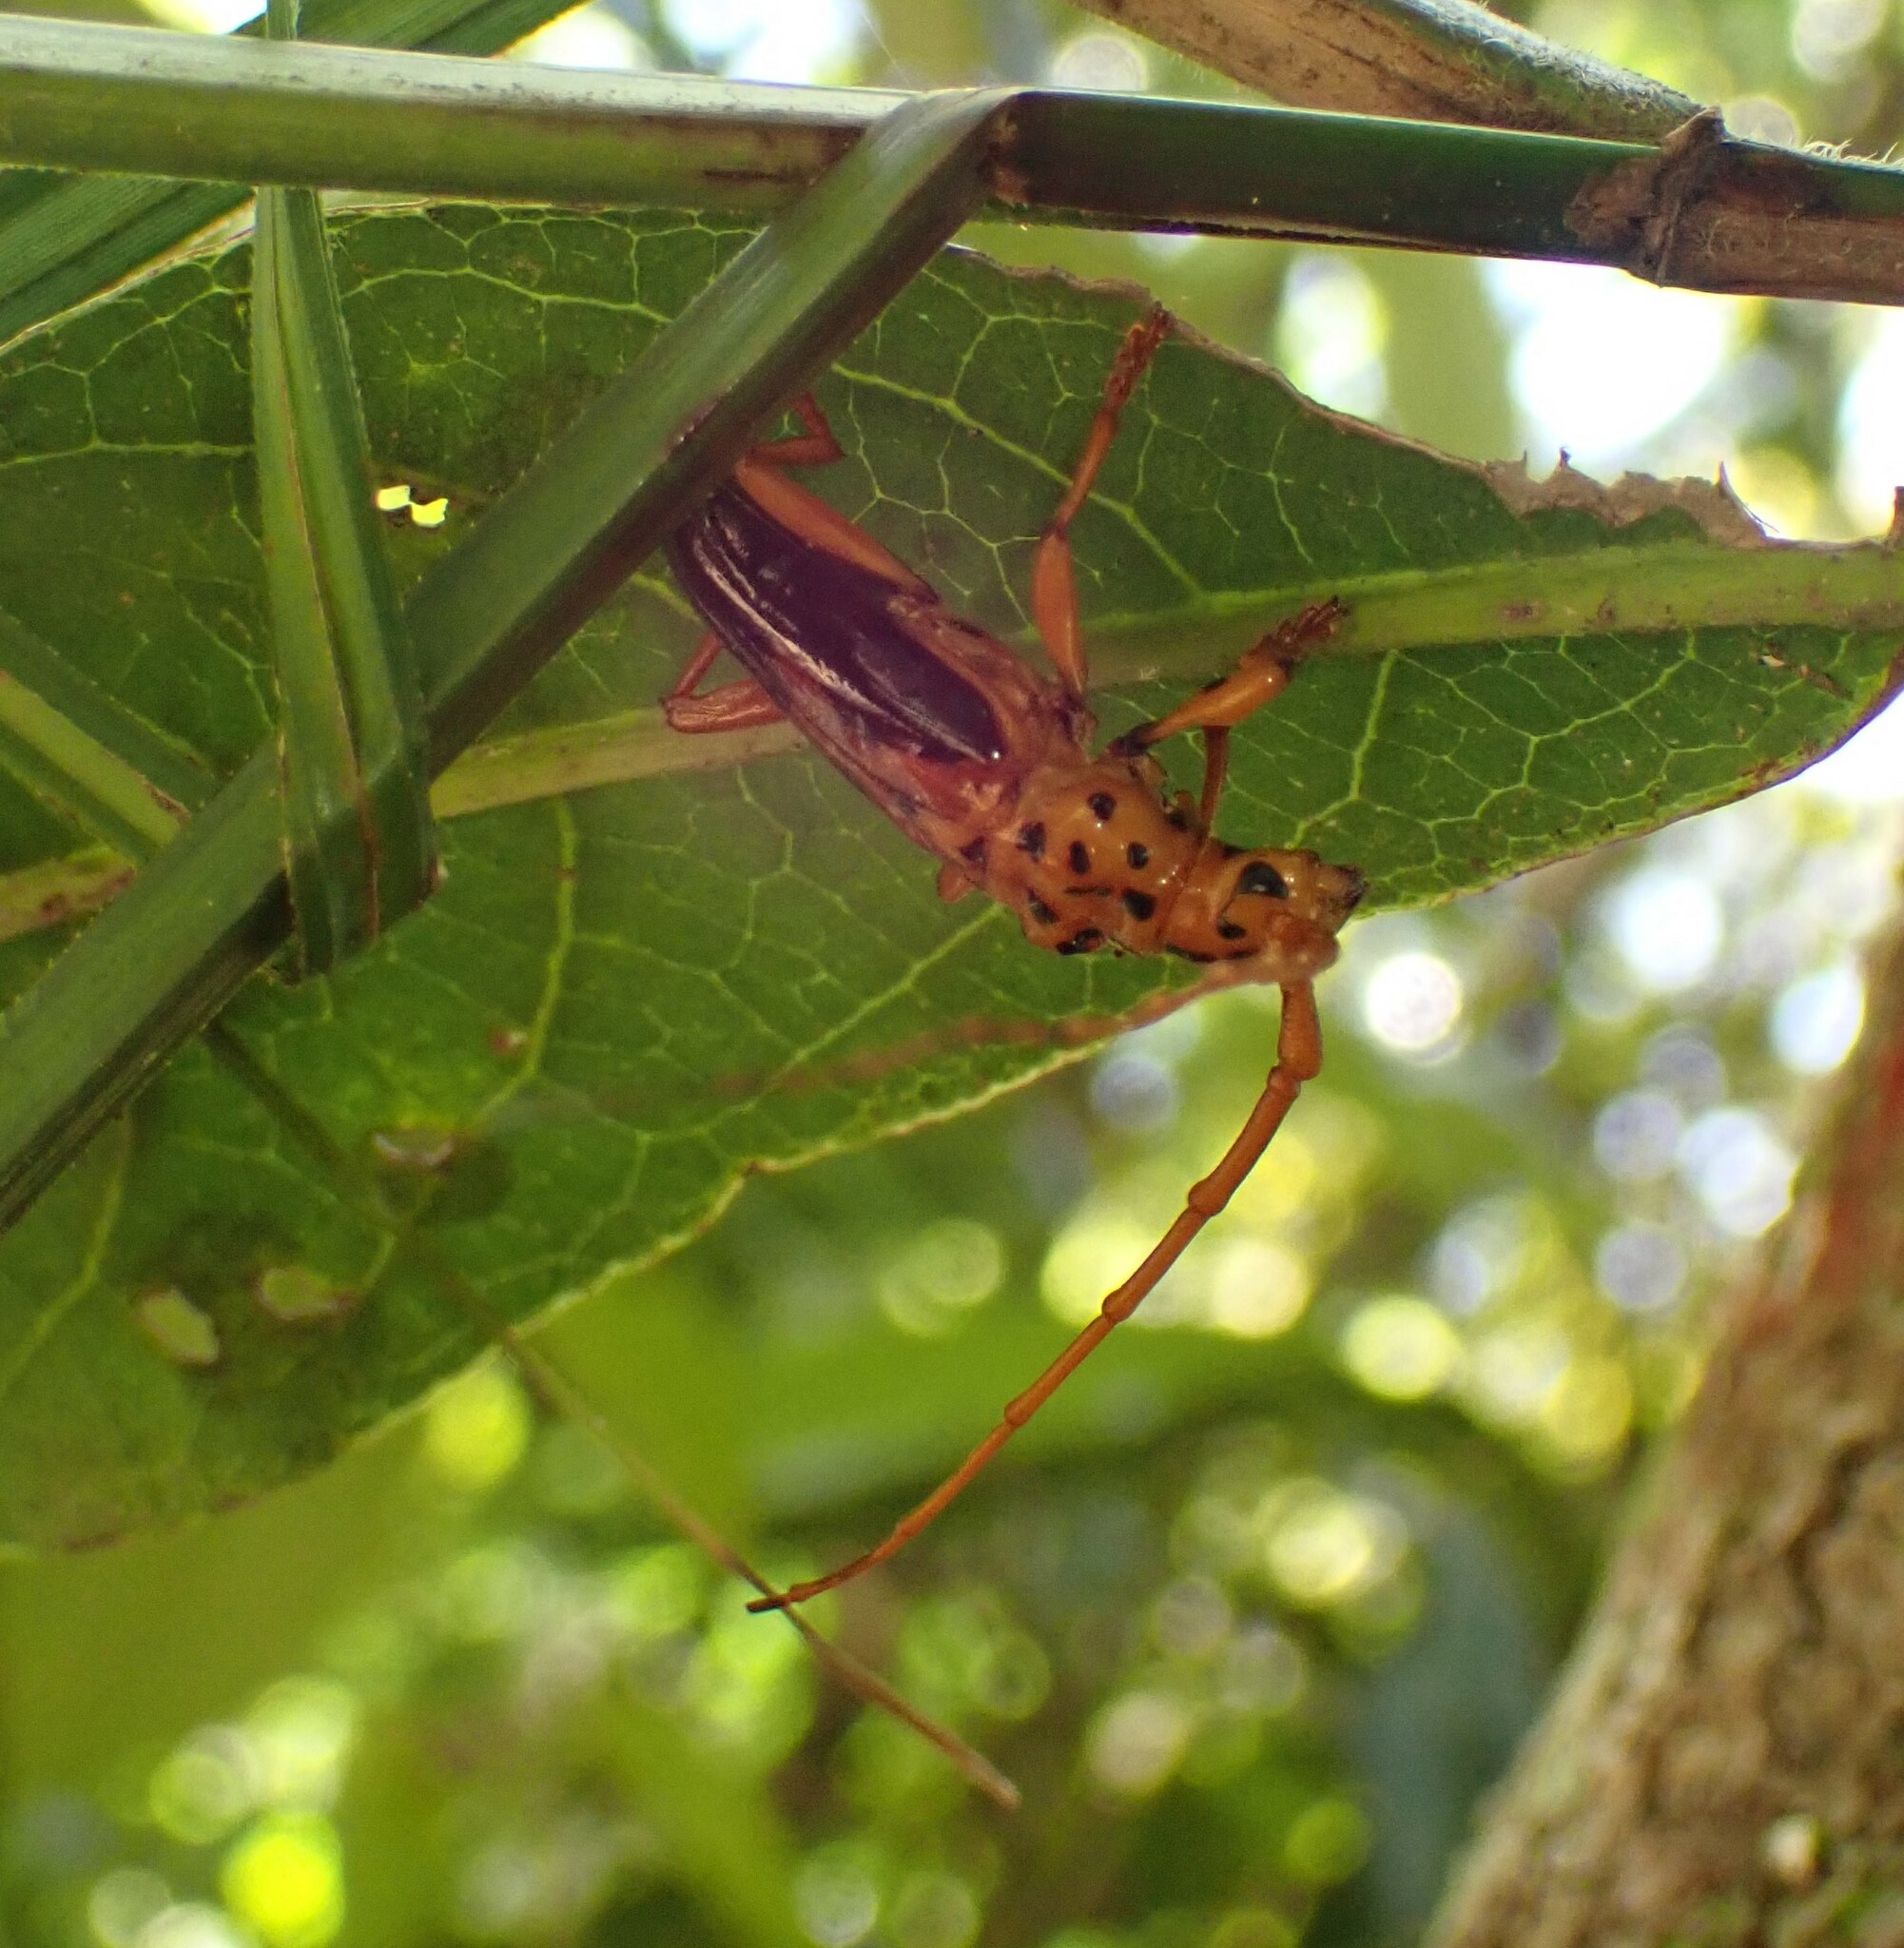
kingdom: Animalia
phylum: Arthropoda
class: Insecta
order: Coleoptera
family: Cerambycidae
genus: Chydarteres
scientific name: Chydarteres dimidiatus
